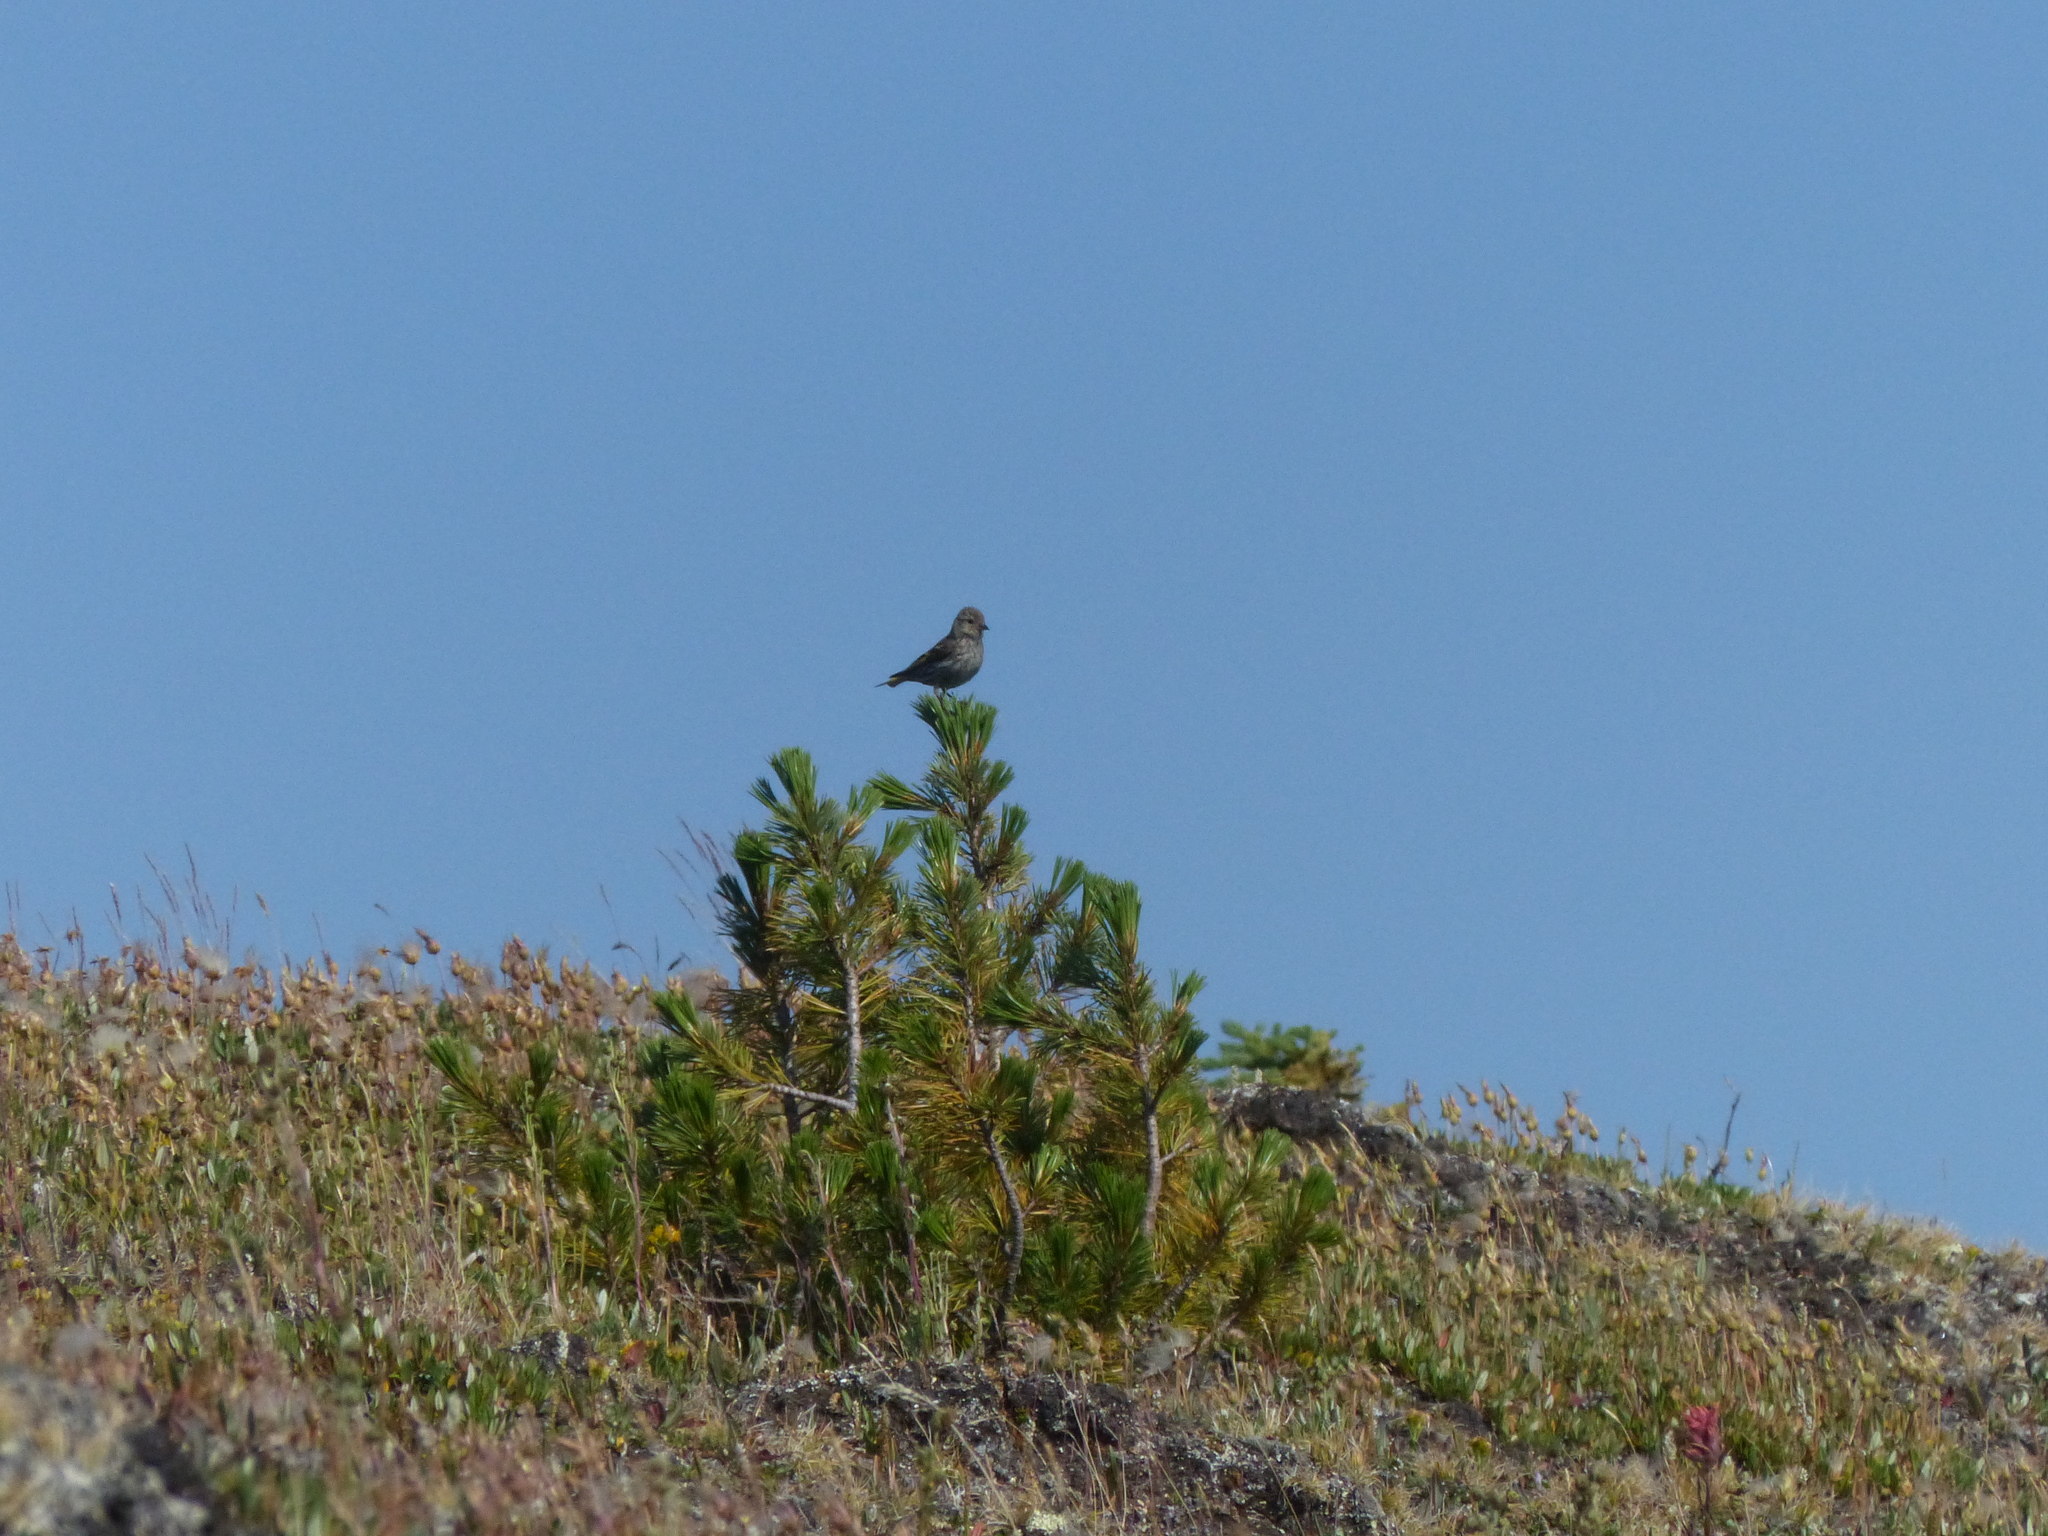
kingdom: Animalia
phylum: Chordata
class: Aves
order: Passeriformes
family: Fringillidae
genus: Spinus
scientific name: Spinus pinus
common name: Pine siskin
